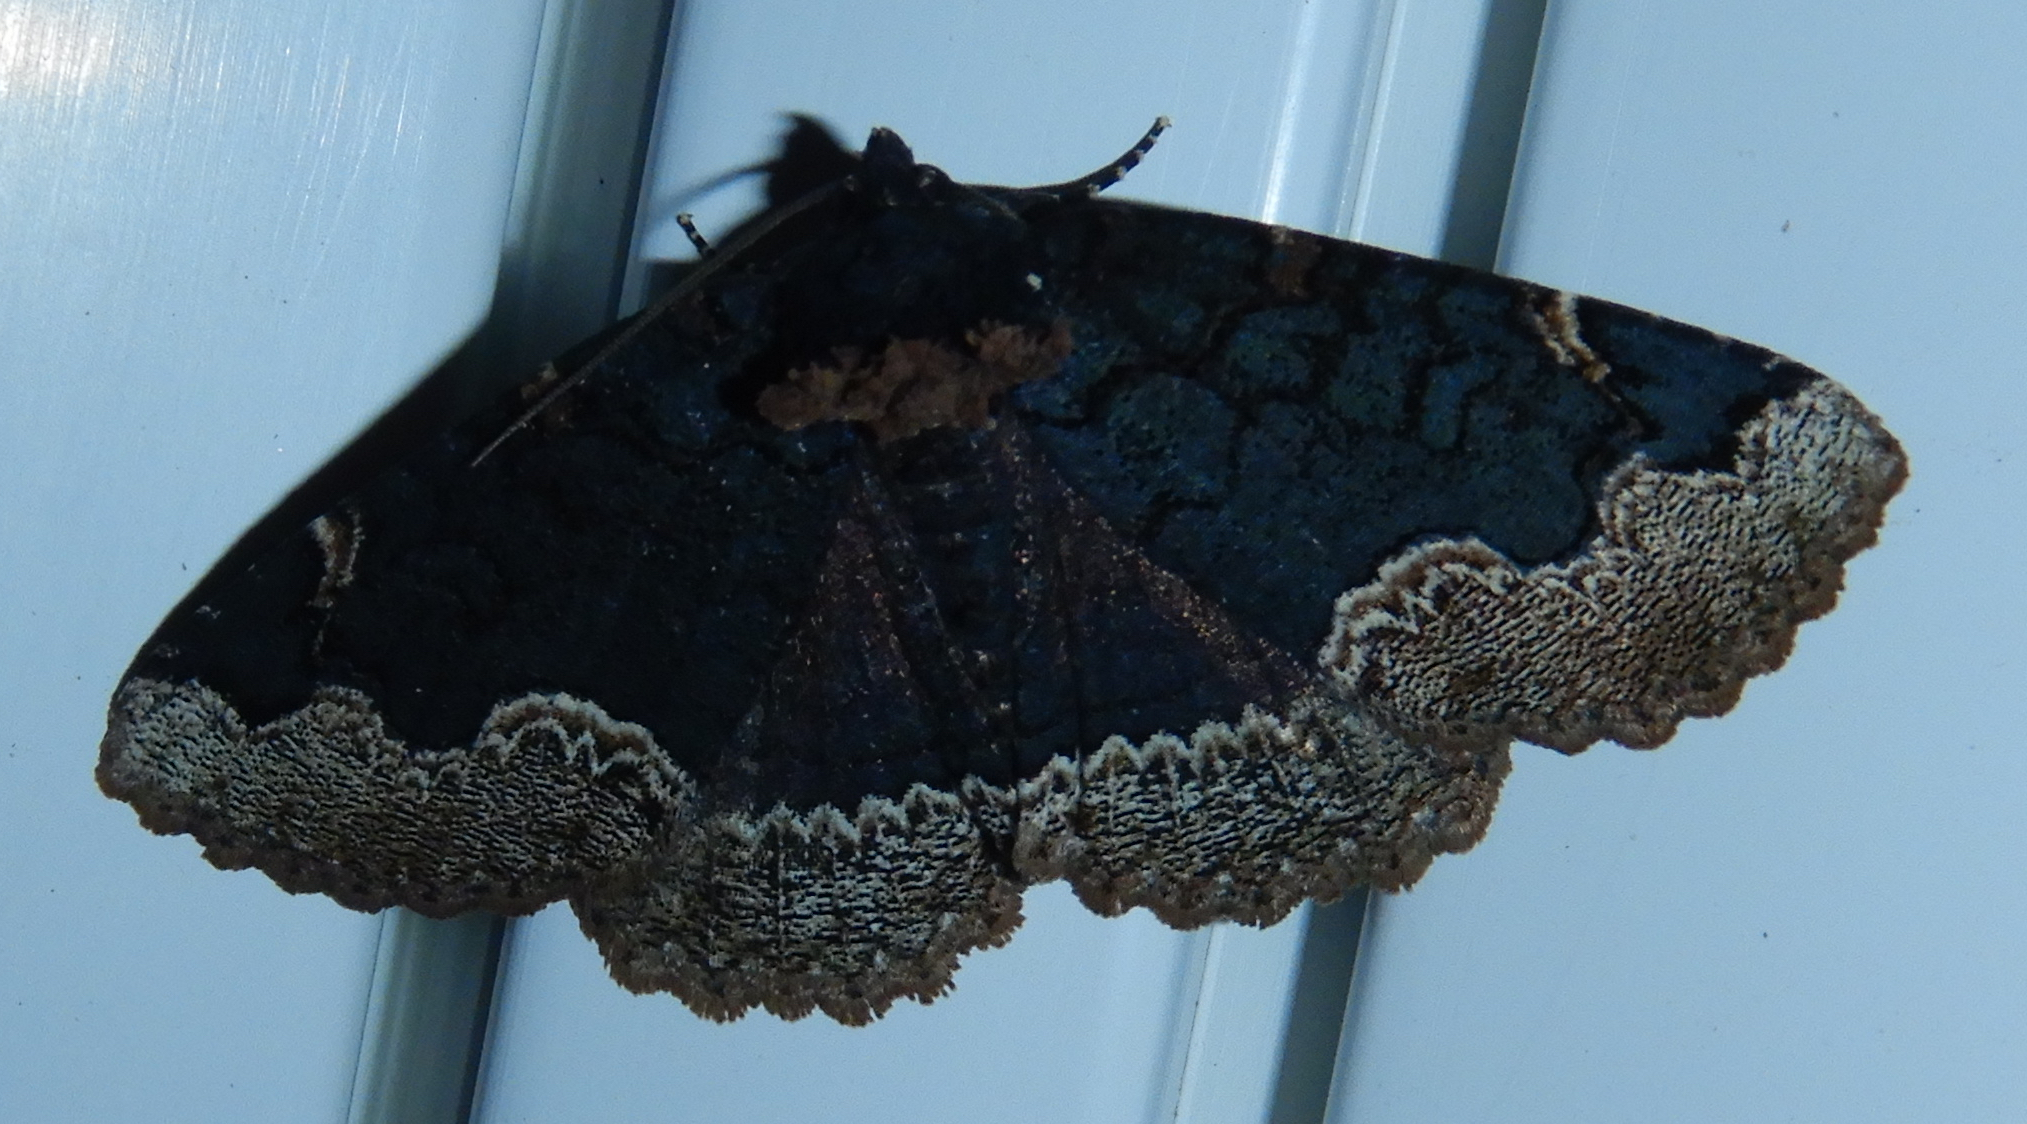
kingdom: Animalia
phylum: Arthropoda
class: Insecta
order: Lepidoptera
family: Erebidae
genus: Zale
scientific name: Zale horrida
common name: Horrid zale moth
